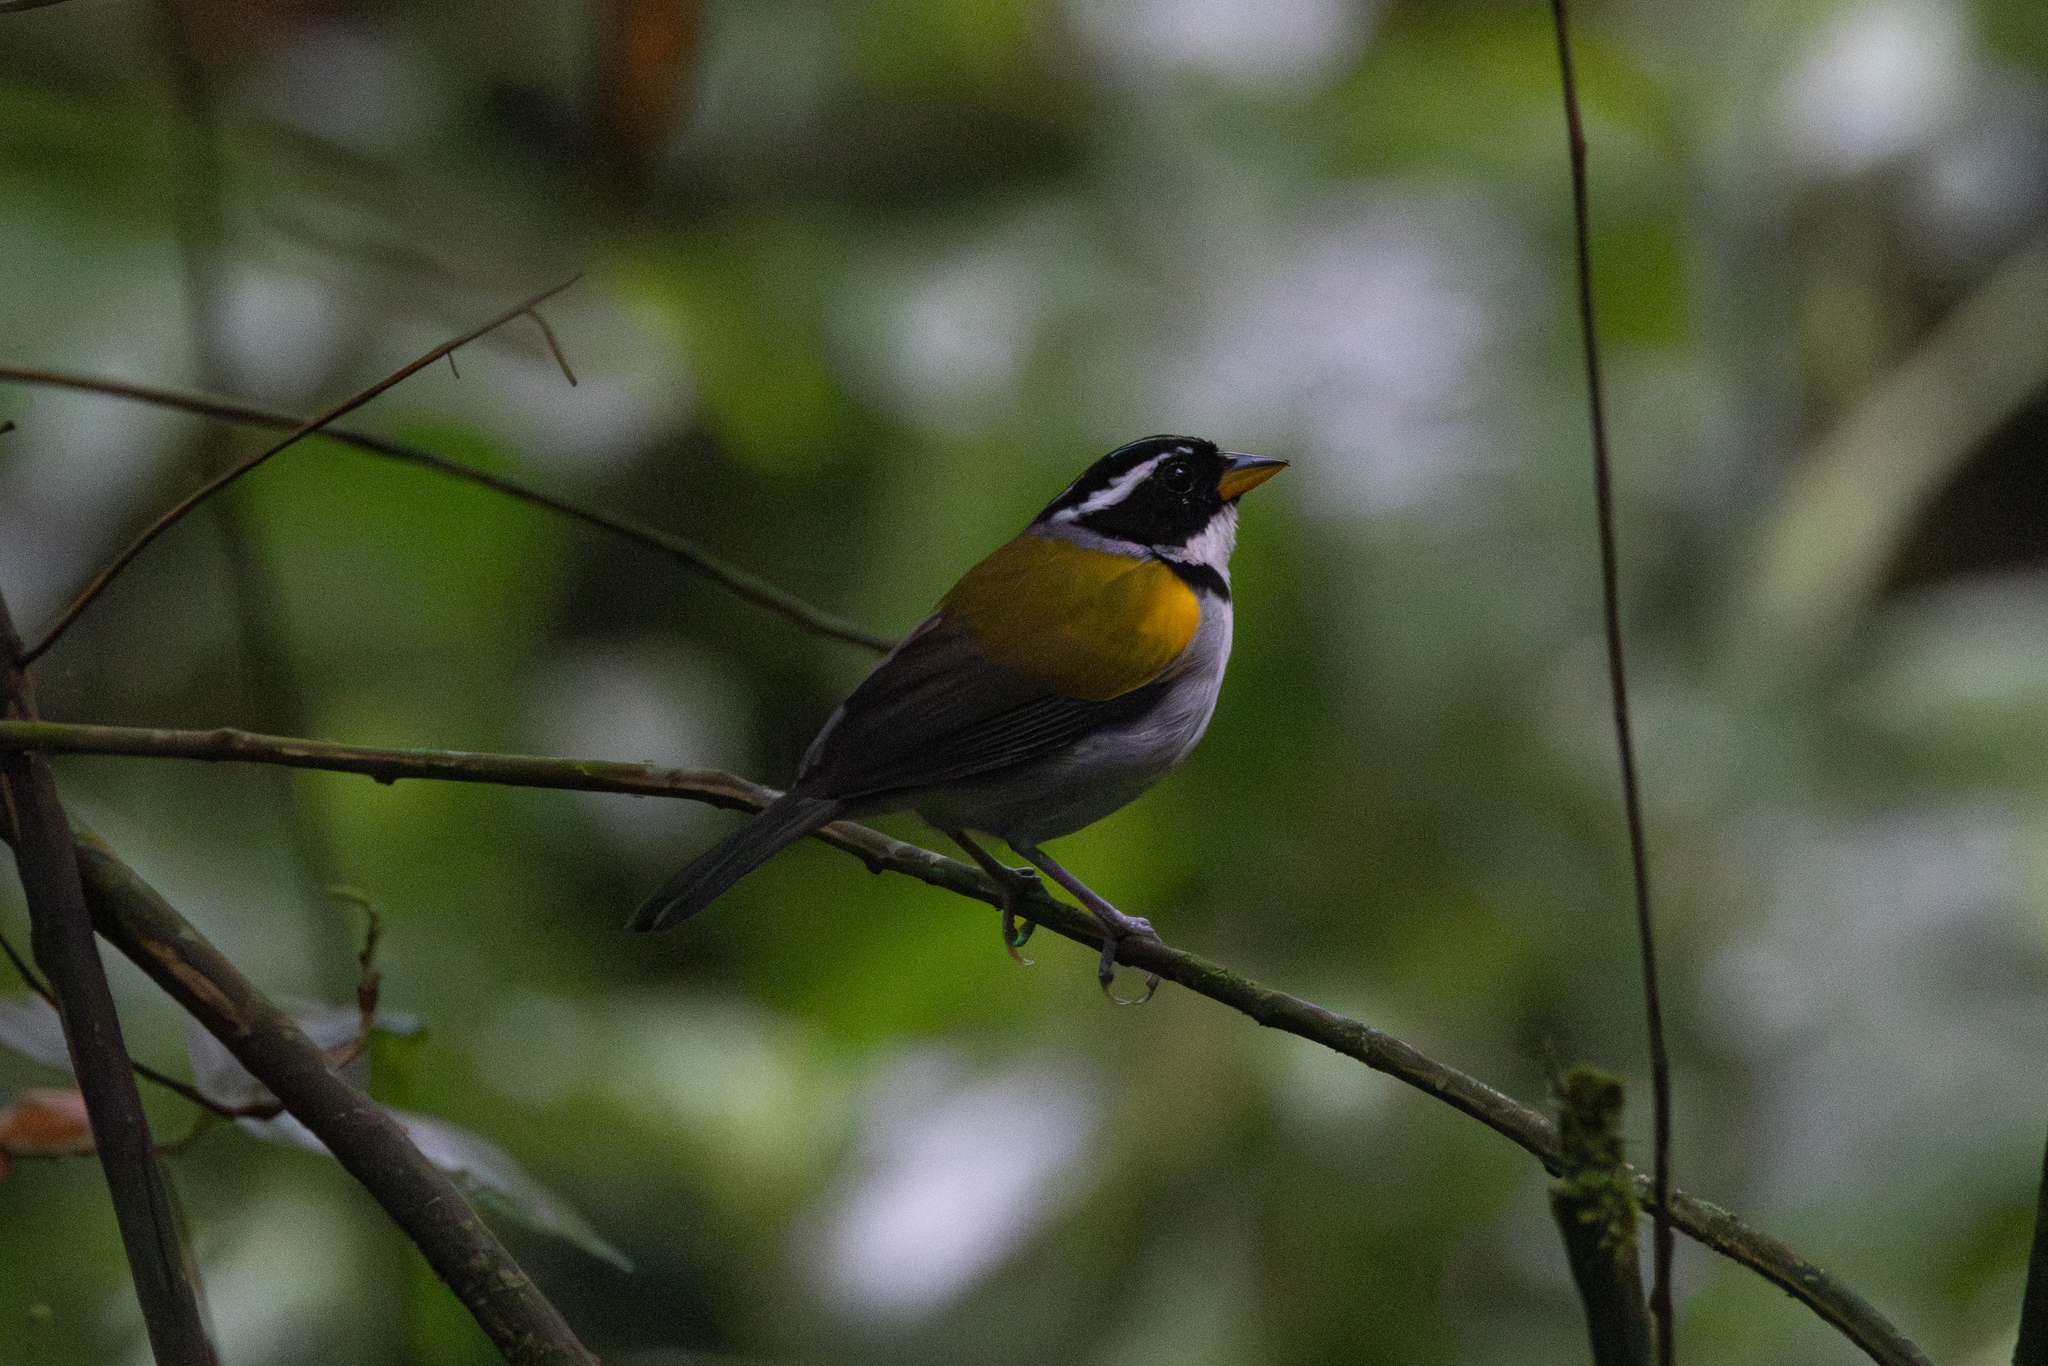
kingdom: Animalia
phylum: Chordata
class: Aves
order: Passeriformes
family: Passerellidae
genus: Arremon
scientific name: Arremon taciturnus
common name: Pectoral sparrow
